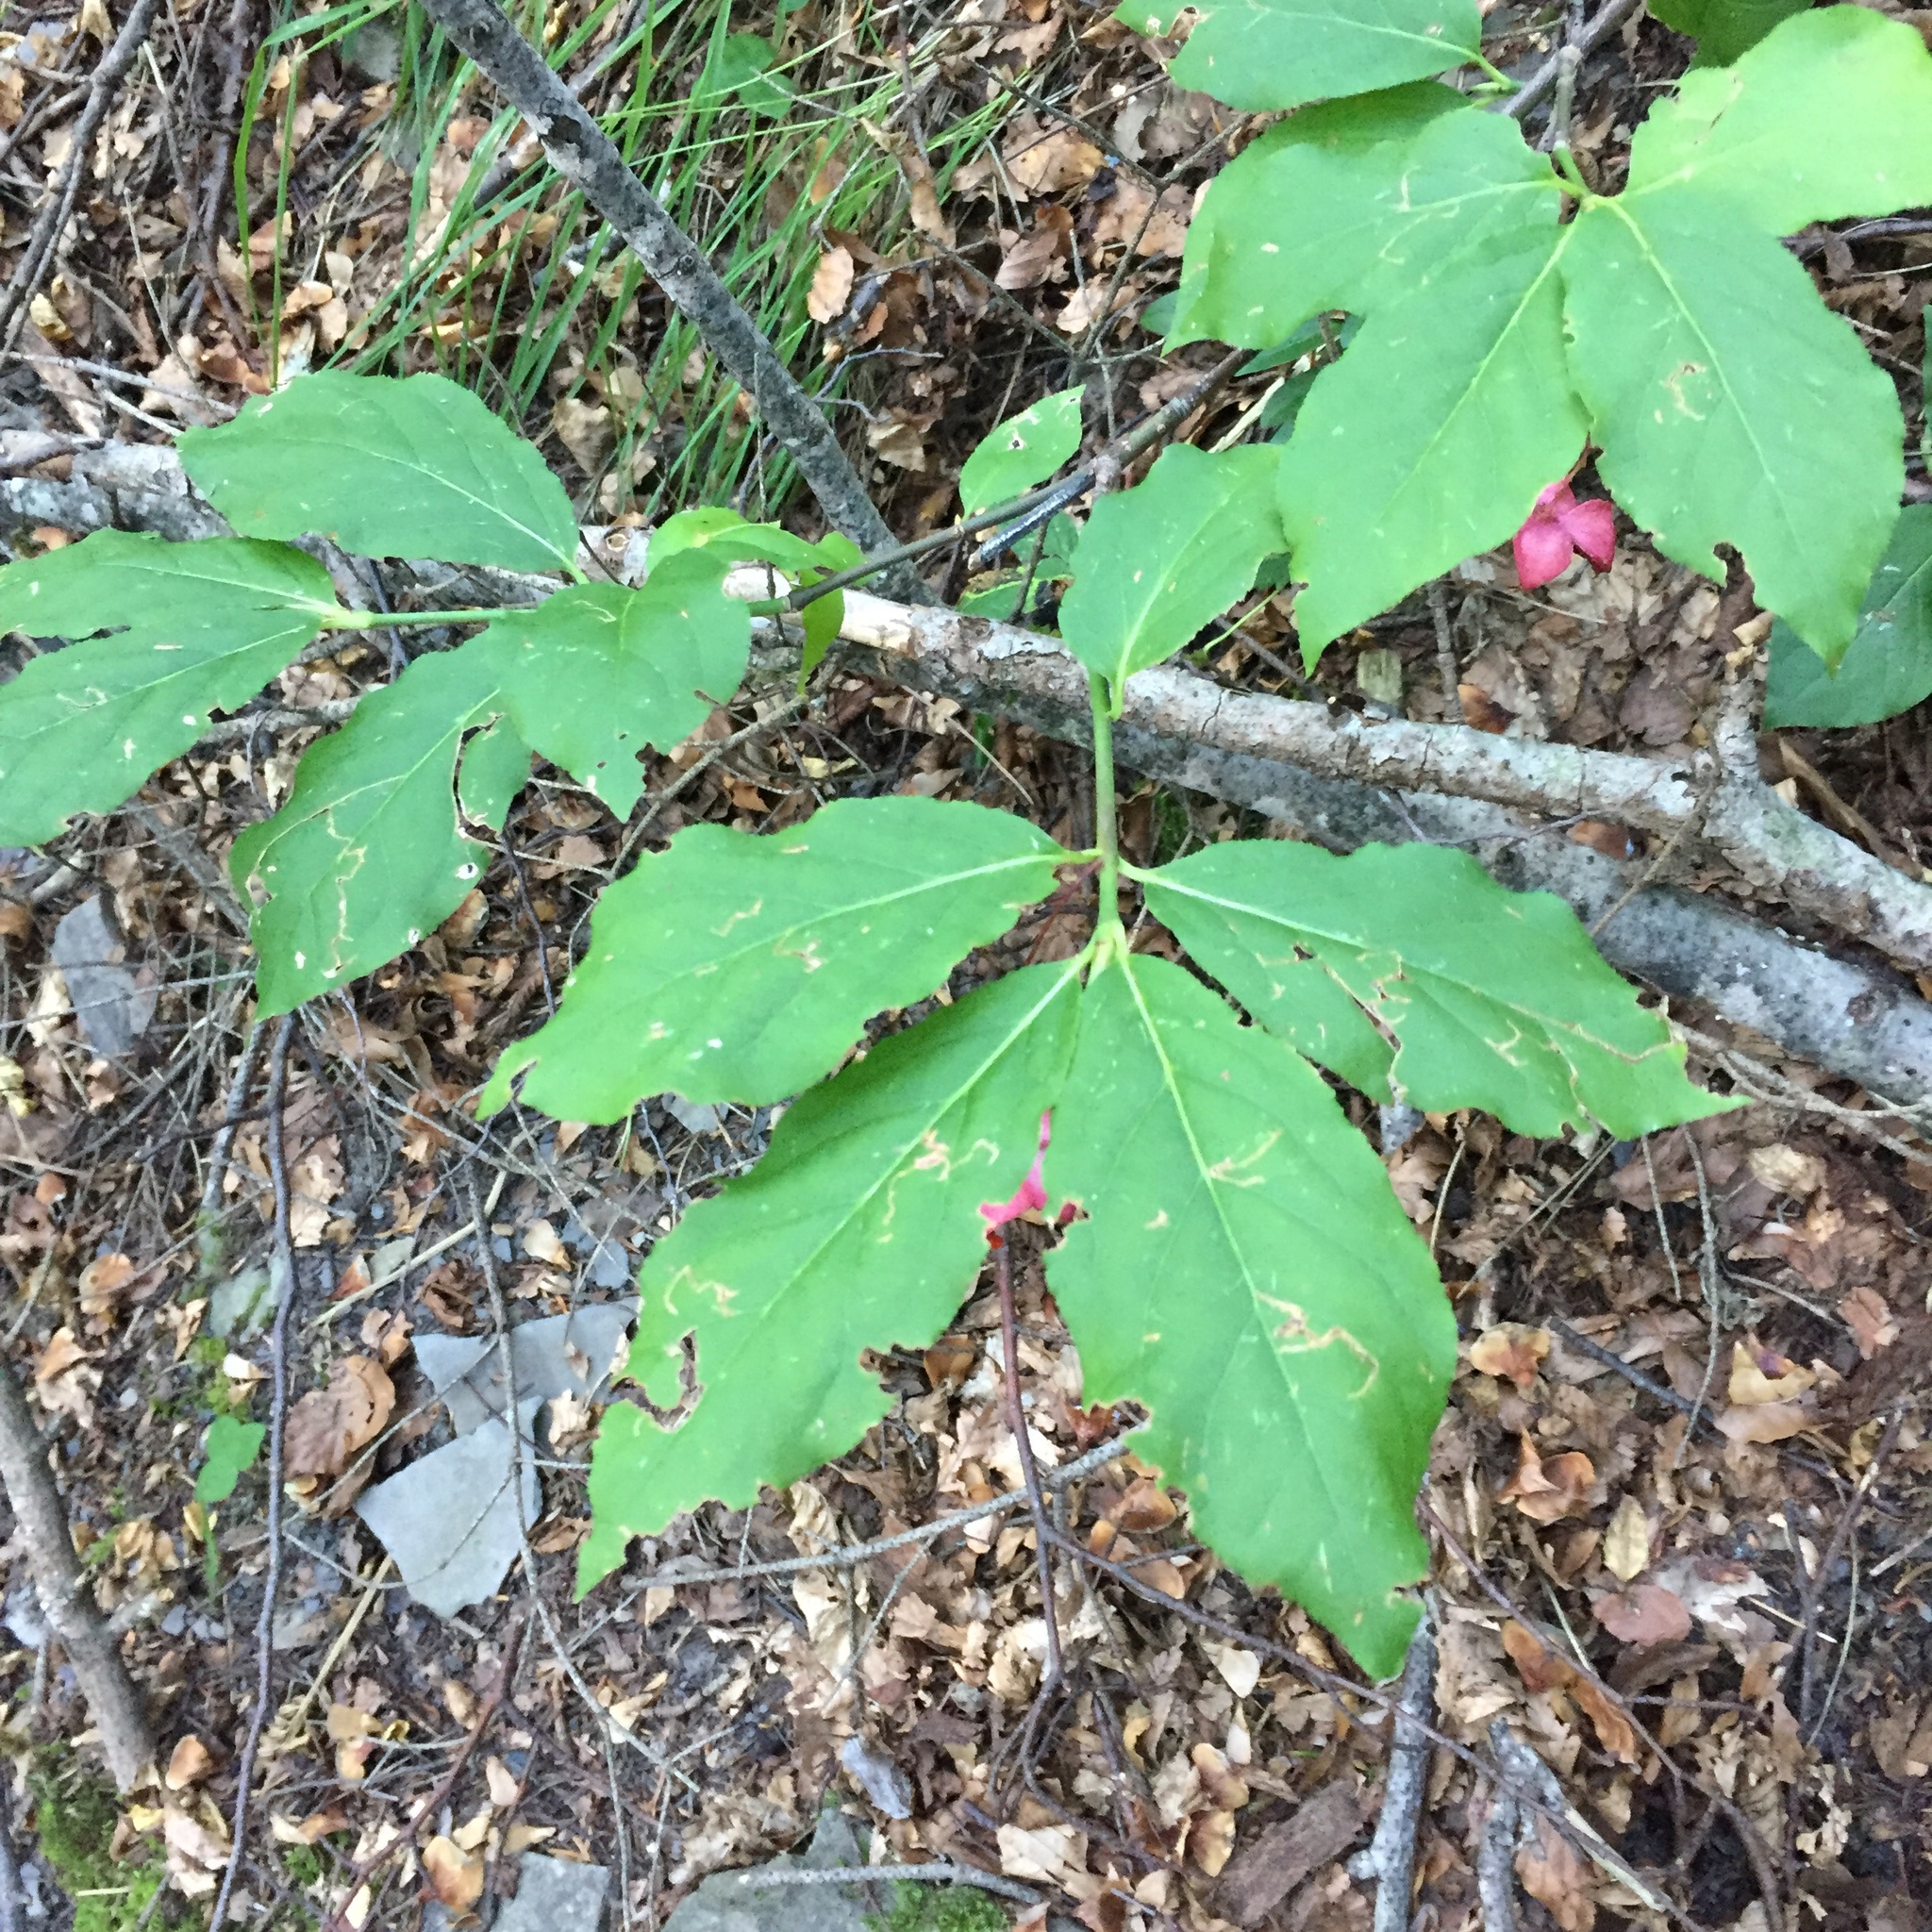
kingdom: Plantae
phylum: Tracheophyta
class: Magnoliopsida
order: Celastrales
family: Celastraceae
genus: Euonymus
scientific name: Euonymus europaeus
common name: Spindle
